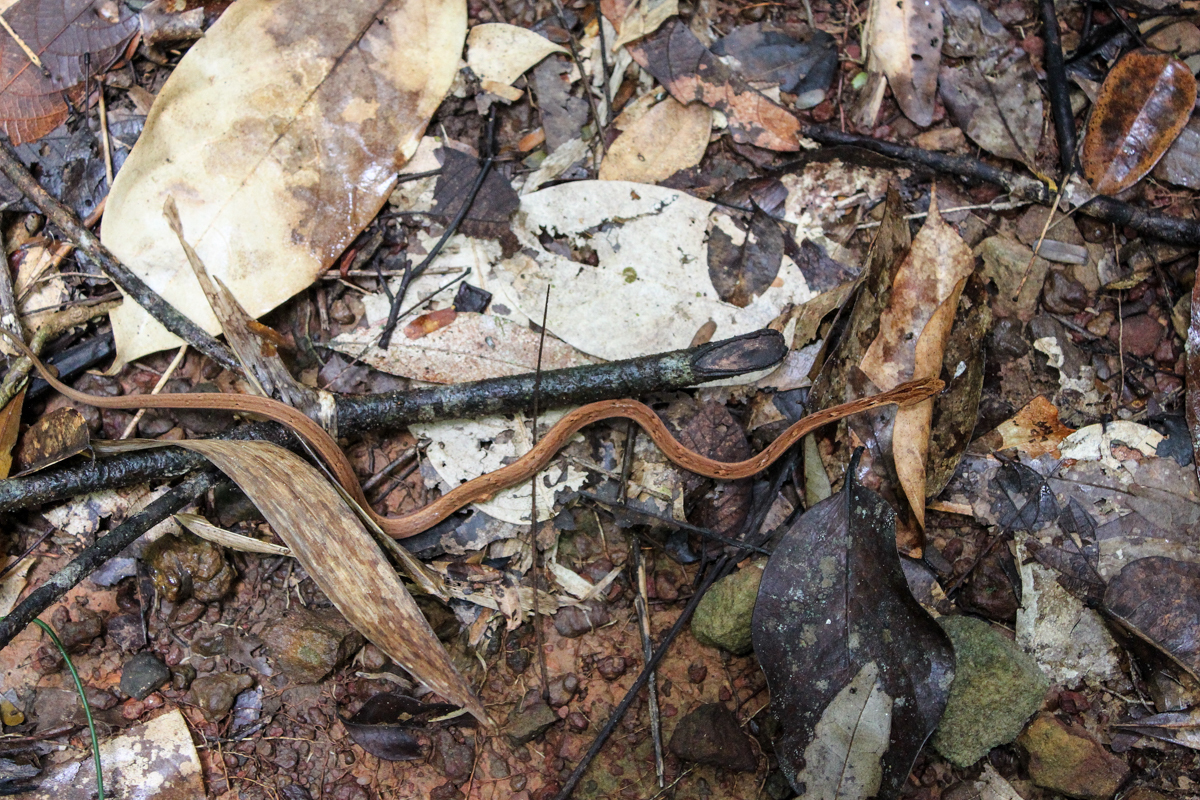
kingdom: Animalia
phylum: Chordata
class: Squamata
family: Pseudaspididae
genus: Psammodynastes
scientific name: Psammodynastes pulverulentus
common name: Common mock viper
